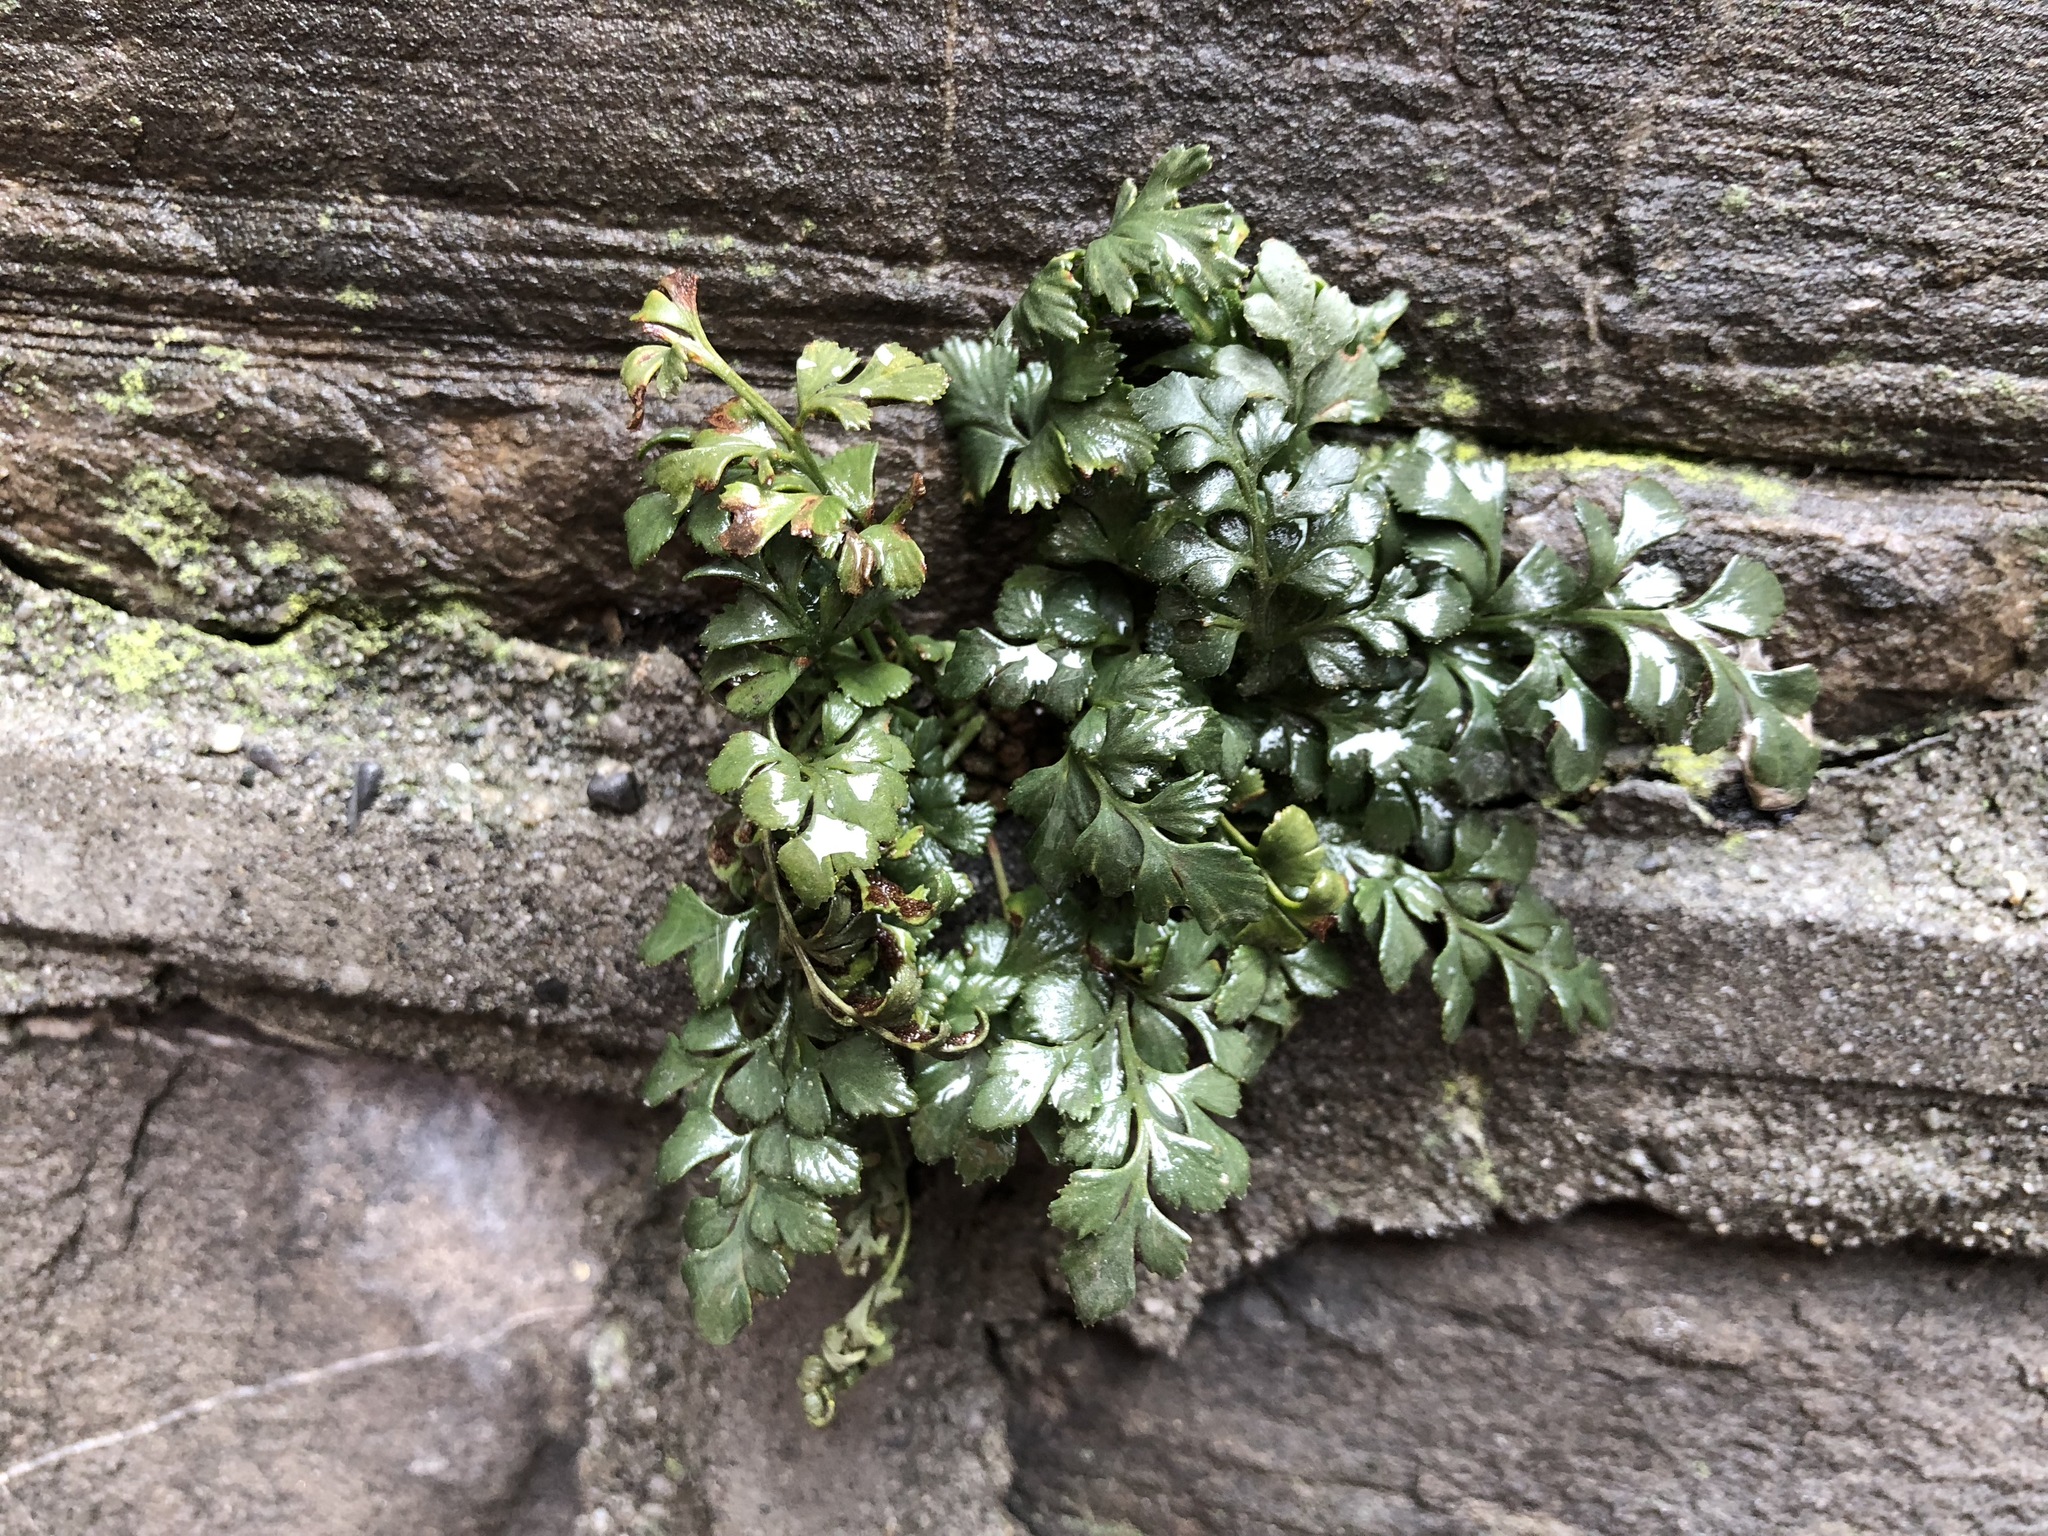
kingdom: Plantae
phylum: Tracheophyta
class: Polypodiopsida
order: Polypodiales
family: Aspleniaceae
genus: Asplenium
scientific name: Asplenium ruta-muraria
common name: Wall-rue
